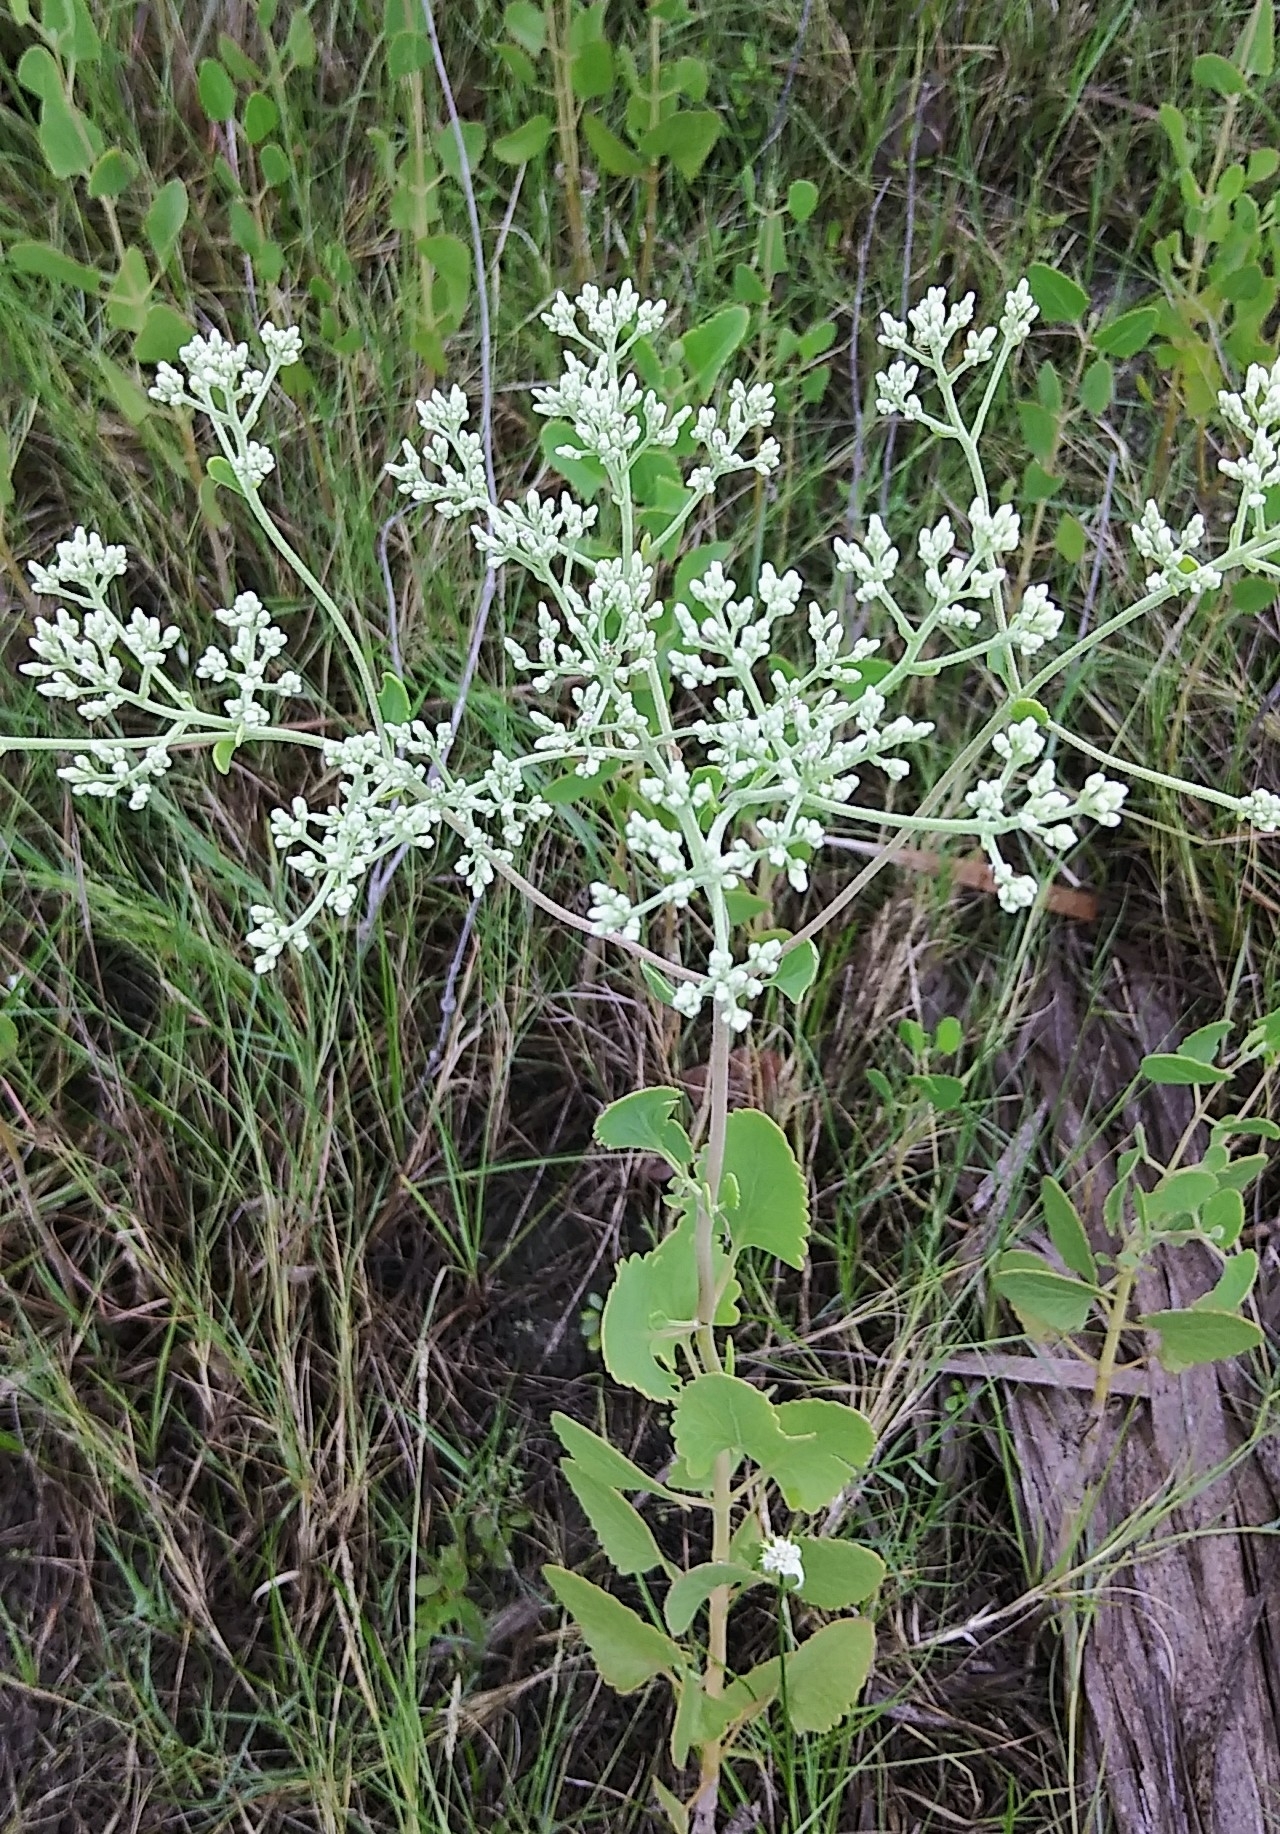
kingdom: Plantae
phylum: Tracheophyta
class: Magnoliopsida
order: Asterales
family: Asteraceae
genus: Eupatorium
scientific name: Eupatorium mikanioides
